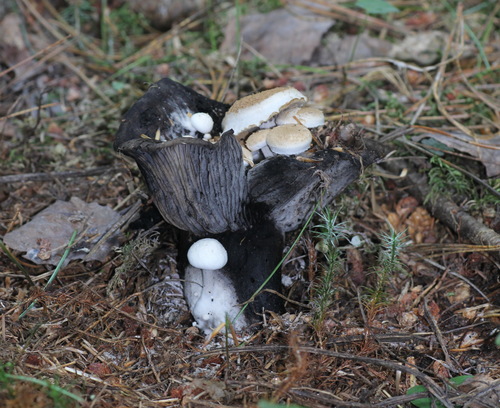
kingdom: Fungi
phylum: Basidiomycota
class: Agaricomycetes
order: Agaricales
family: Lyophyllaceae
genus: Asterophora
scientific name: Asterophora lycoperdoides
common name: Pick-a-back toadstool
